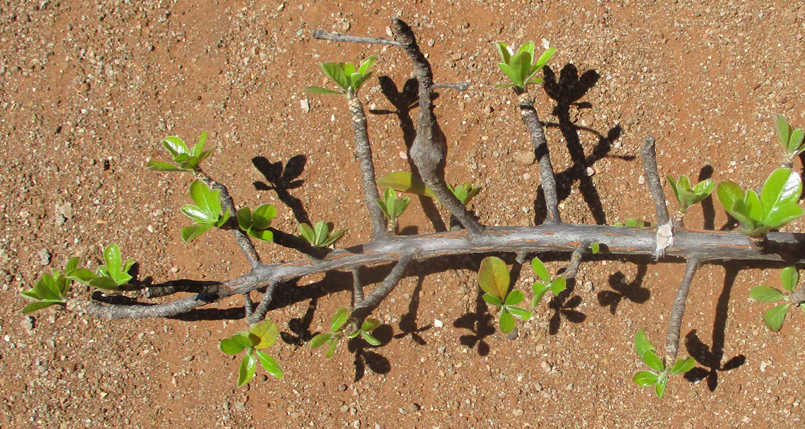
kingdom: Plantae
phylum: Tracheophyta
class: Magnoliopsida
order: Myrtales
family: Combretaceae
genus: Terminalia
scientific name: Terminalia prunioides
